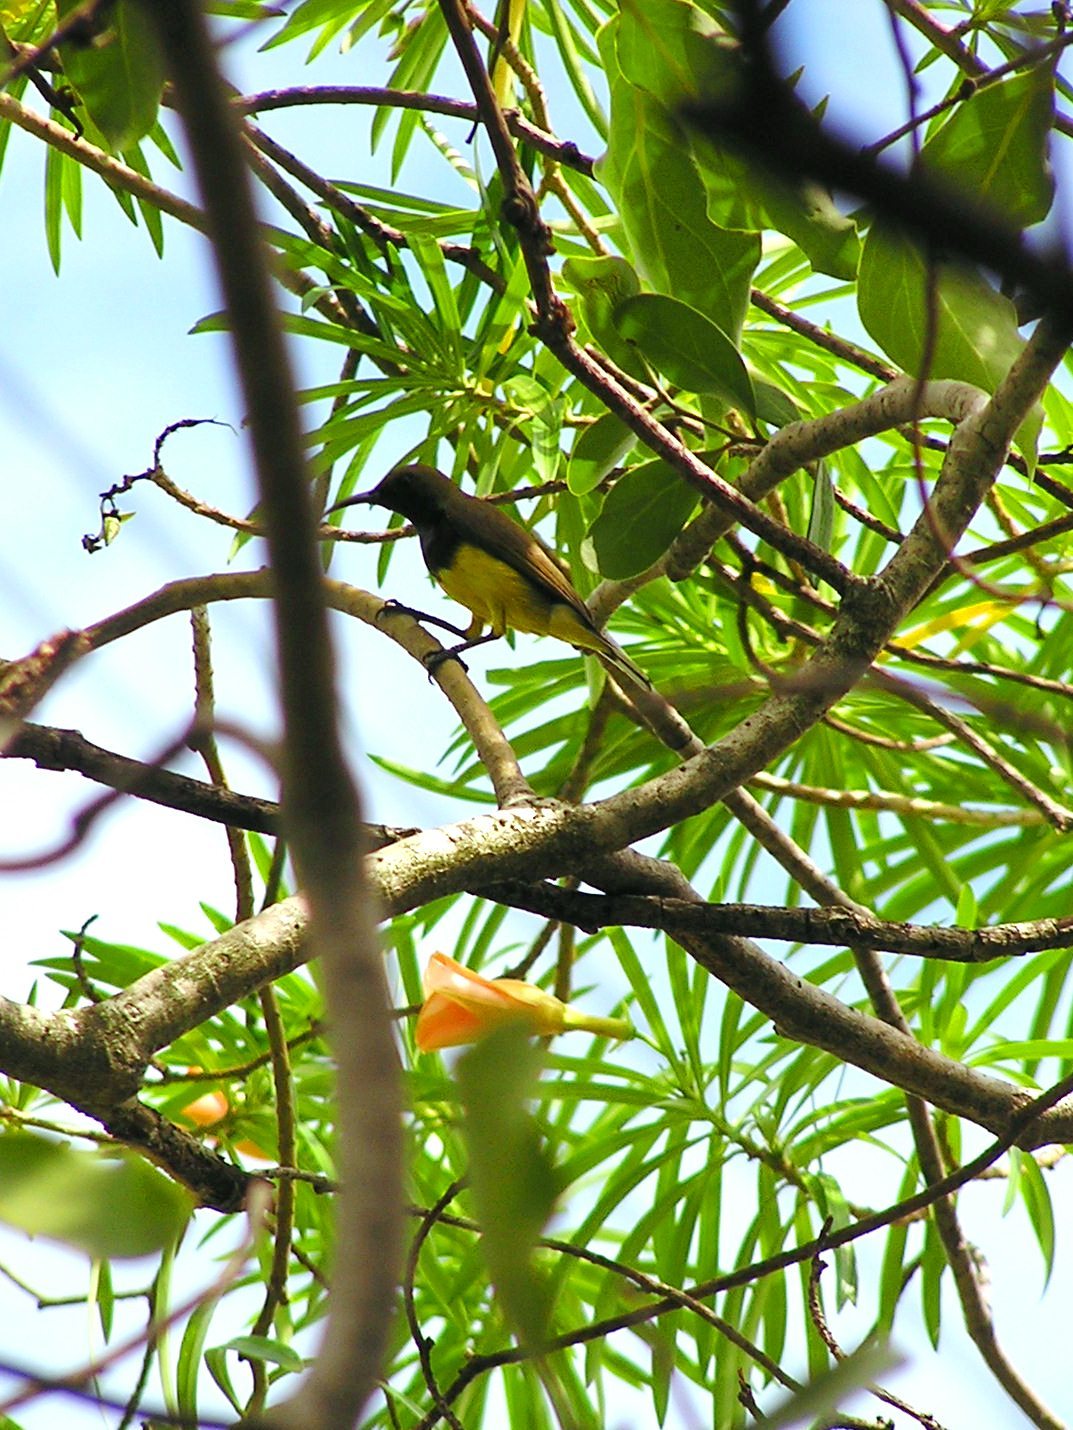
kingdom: Animalia
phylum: Chordata
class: Aves
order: Passeriformes
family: Nectariniidae
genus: Cinnyris
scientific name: Cinnyris
